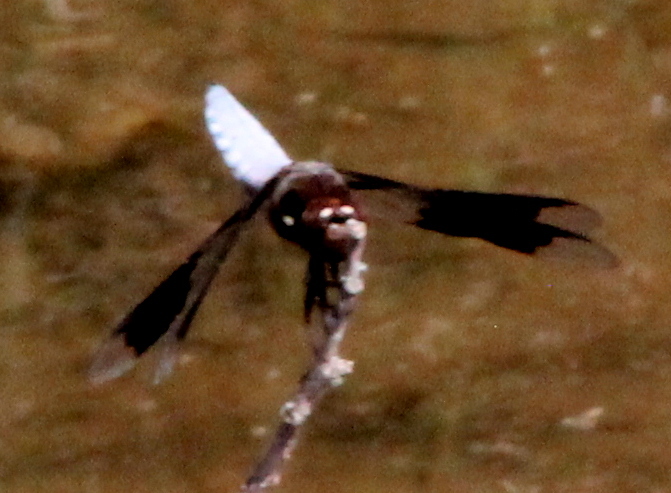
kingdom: Animalia
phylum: Arthropoda
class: Insecta
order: Odonata
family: Libellulidae
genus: Plathemis
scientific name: Plathemis lydia
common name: Common whitetail
